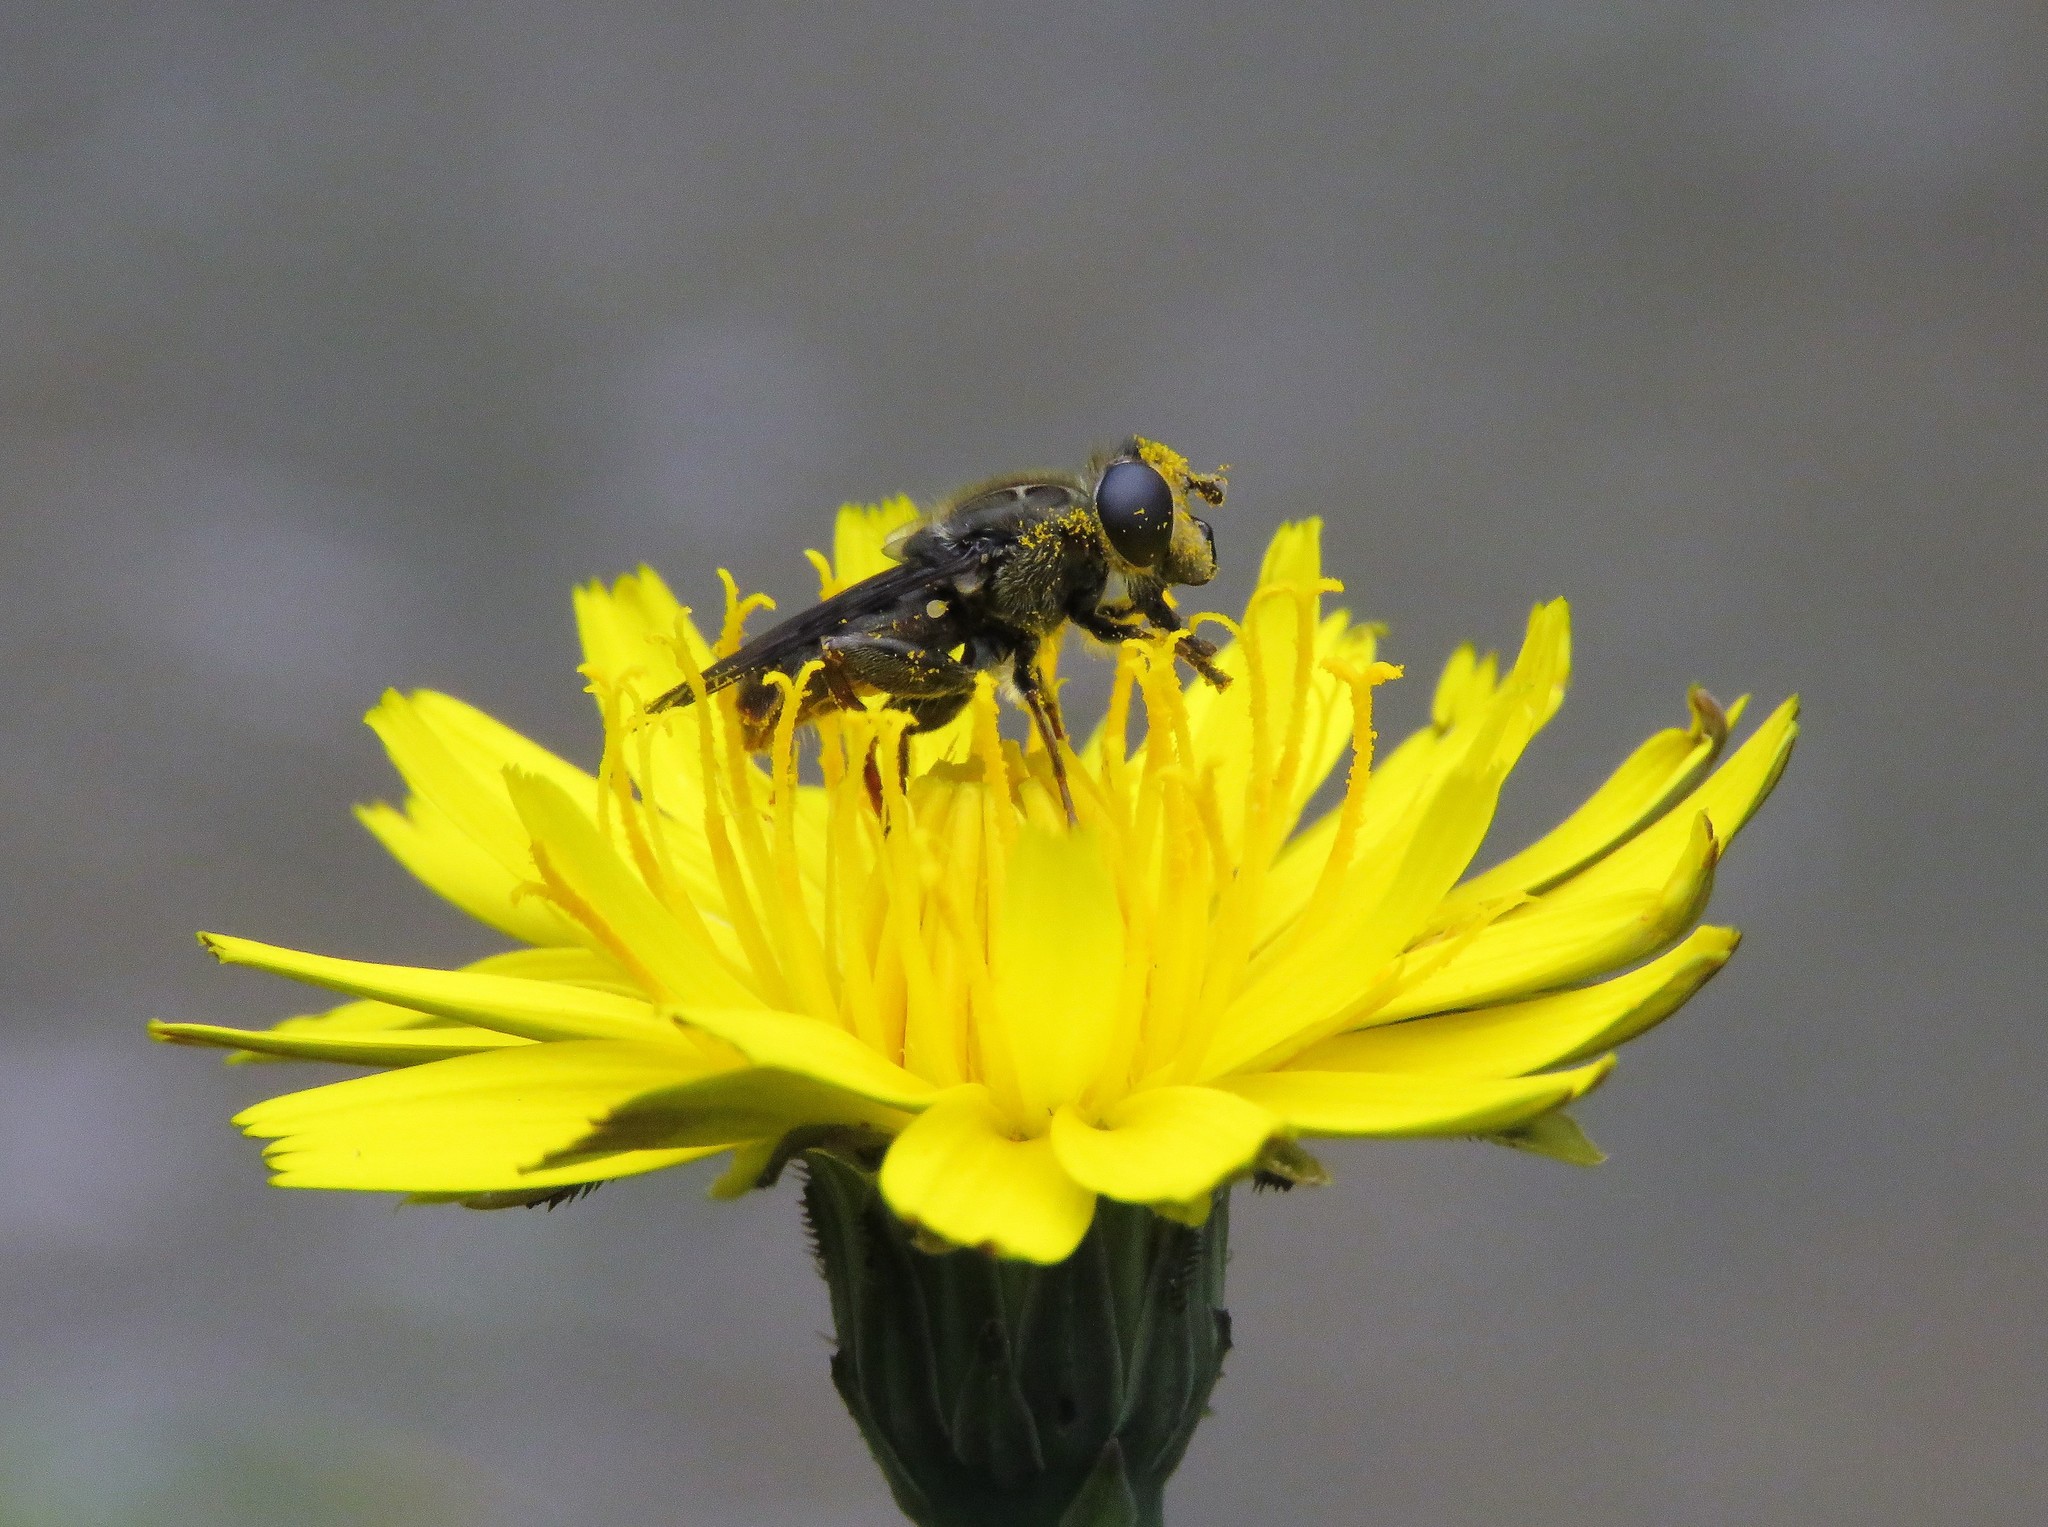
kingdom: Animalia
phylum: Arthropoda
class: Insecta
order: Diptera
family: Syrphidae
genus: Asemosyrphus
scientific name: Asemosyrphus
